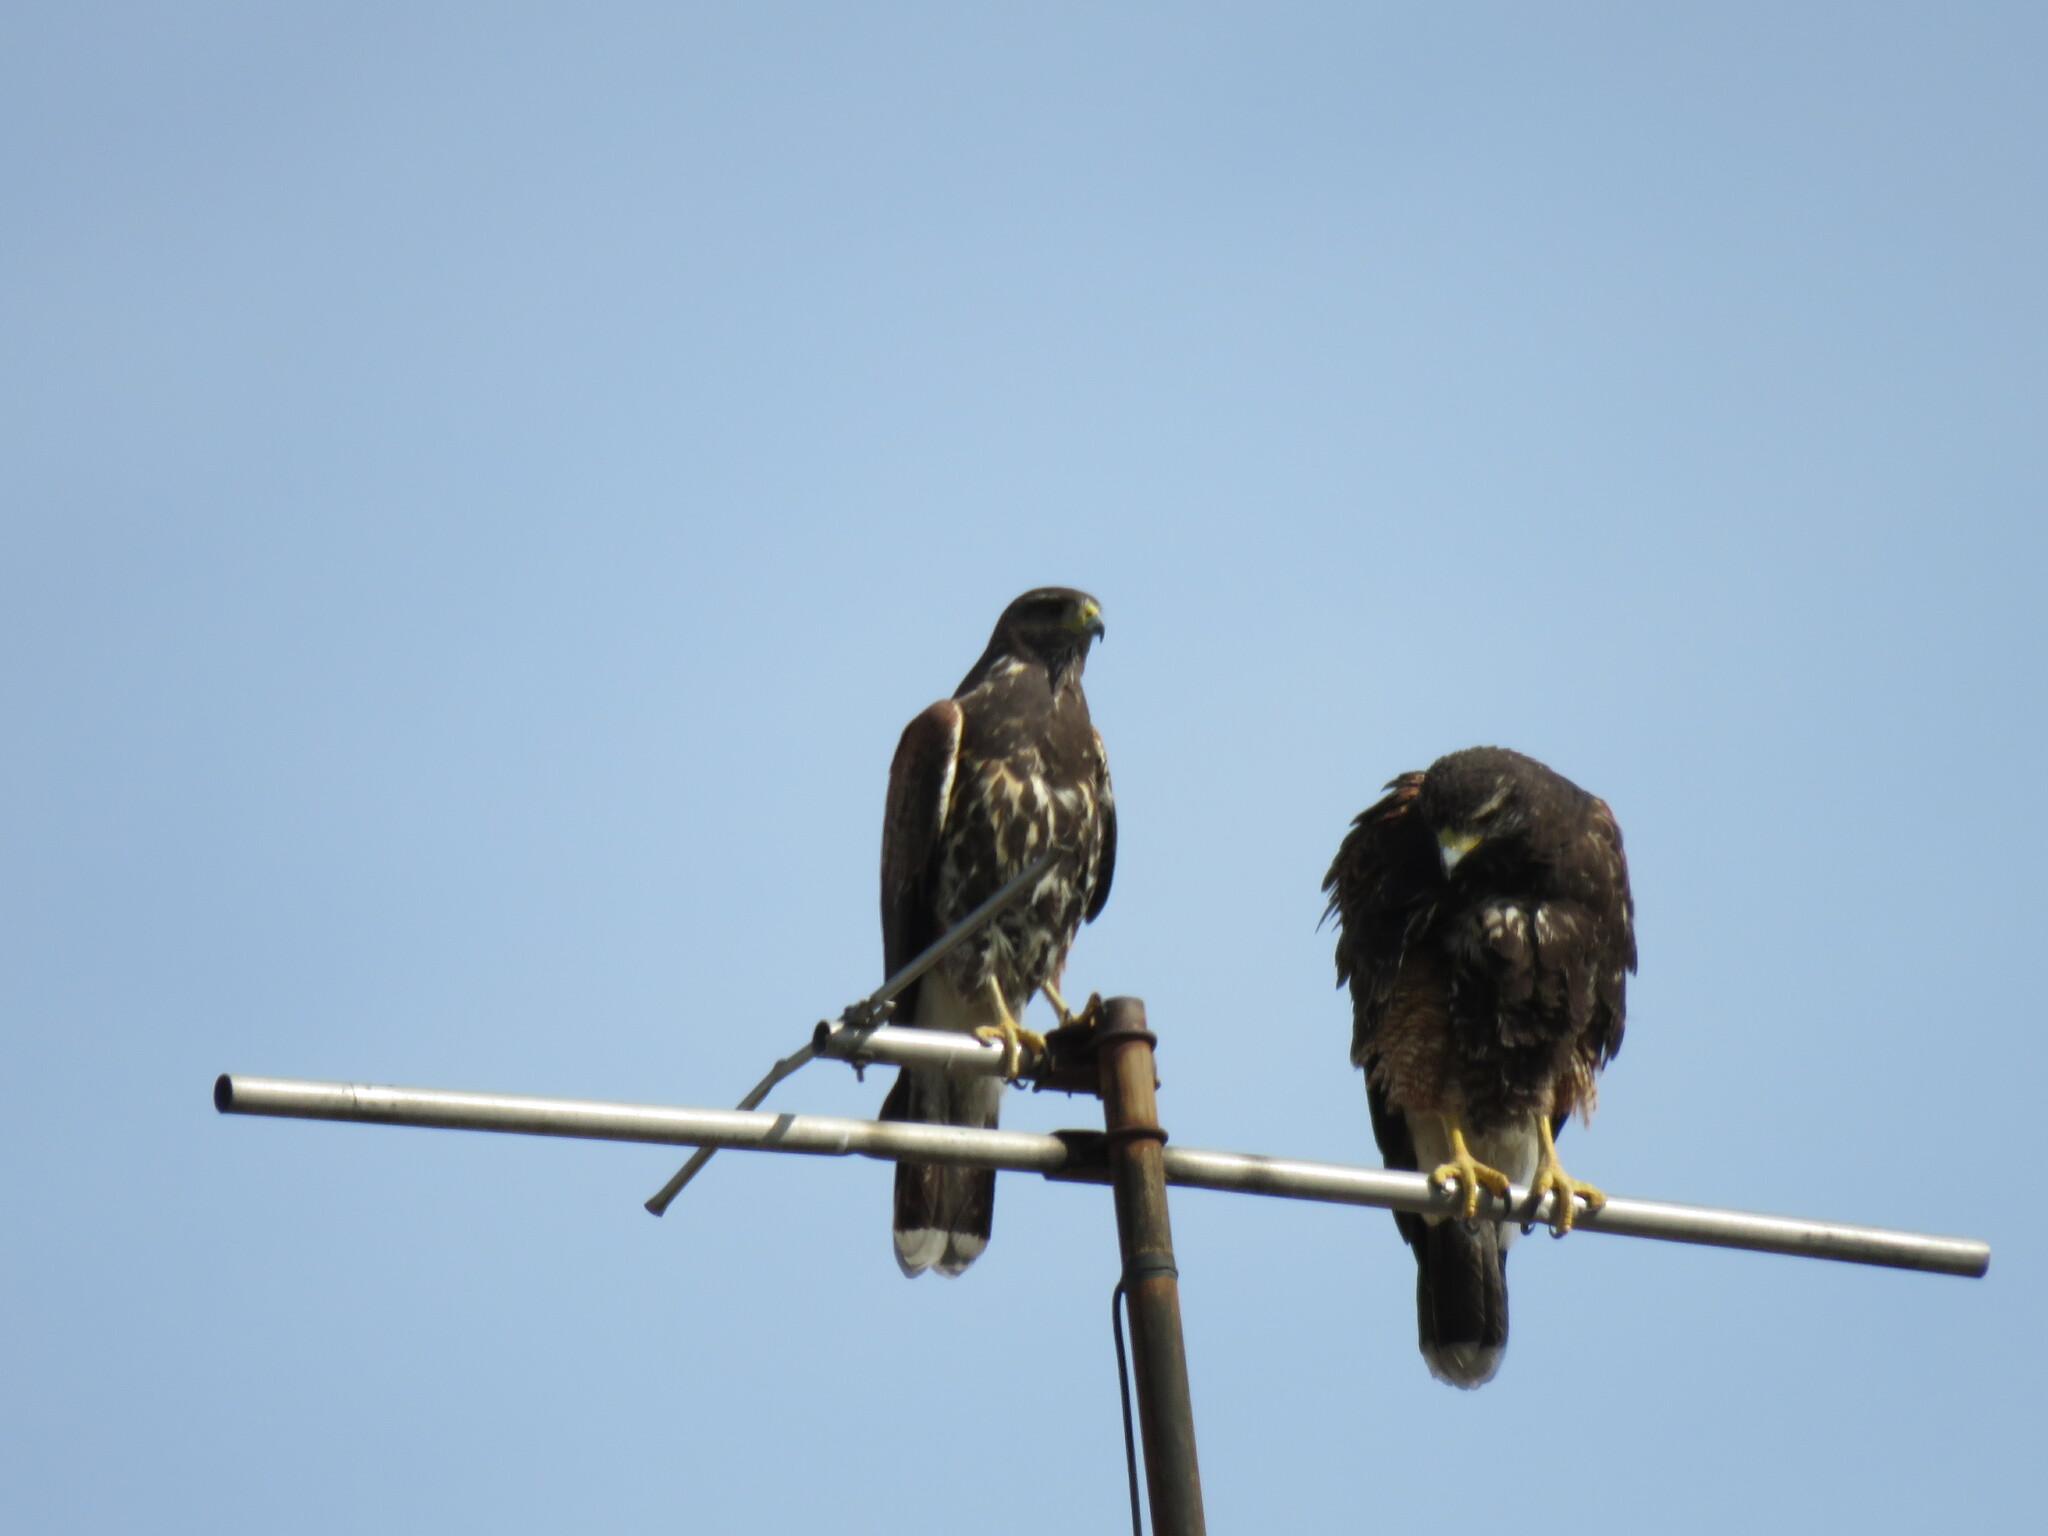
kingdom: Animalia
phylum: Chordata
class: Aves
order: Accipitriformes
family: Accipitridae
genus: Parabuteo
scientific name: Parabuteo unicinctus
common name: Harris's hawk
